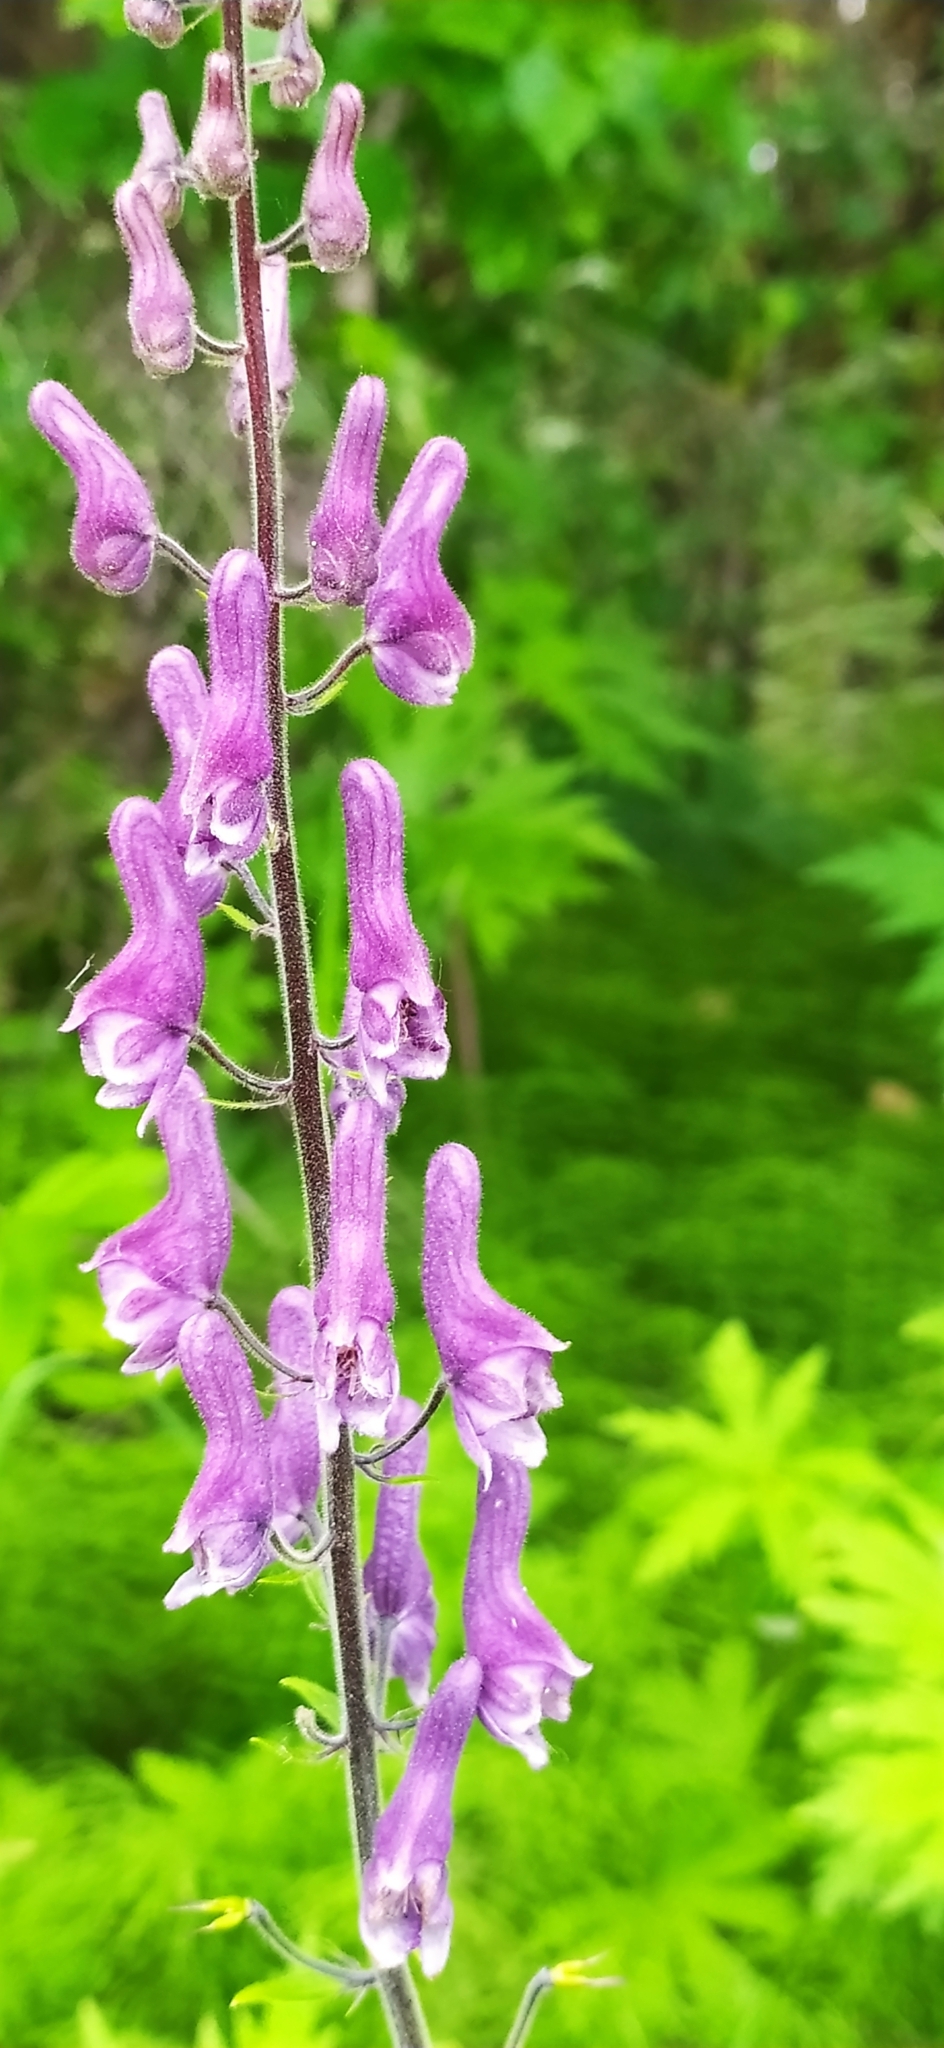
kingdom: Plantae
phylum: Tracheophyta
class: Magnoliopsida
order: Ranunculales
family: Ranunculaceae
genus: Aconitum
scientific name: Aconitum septentrionale
